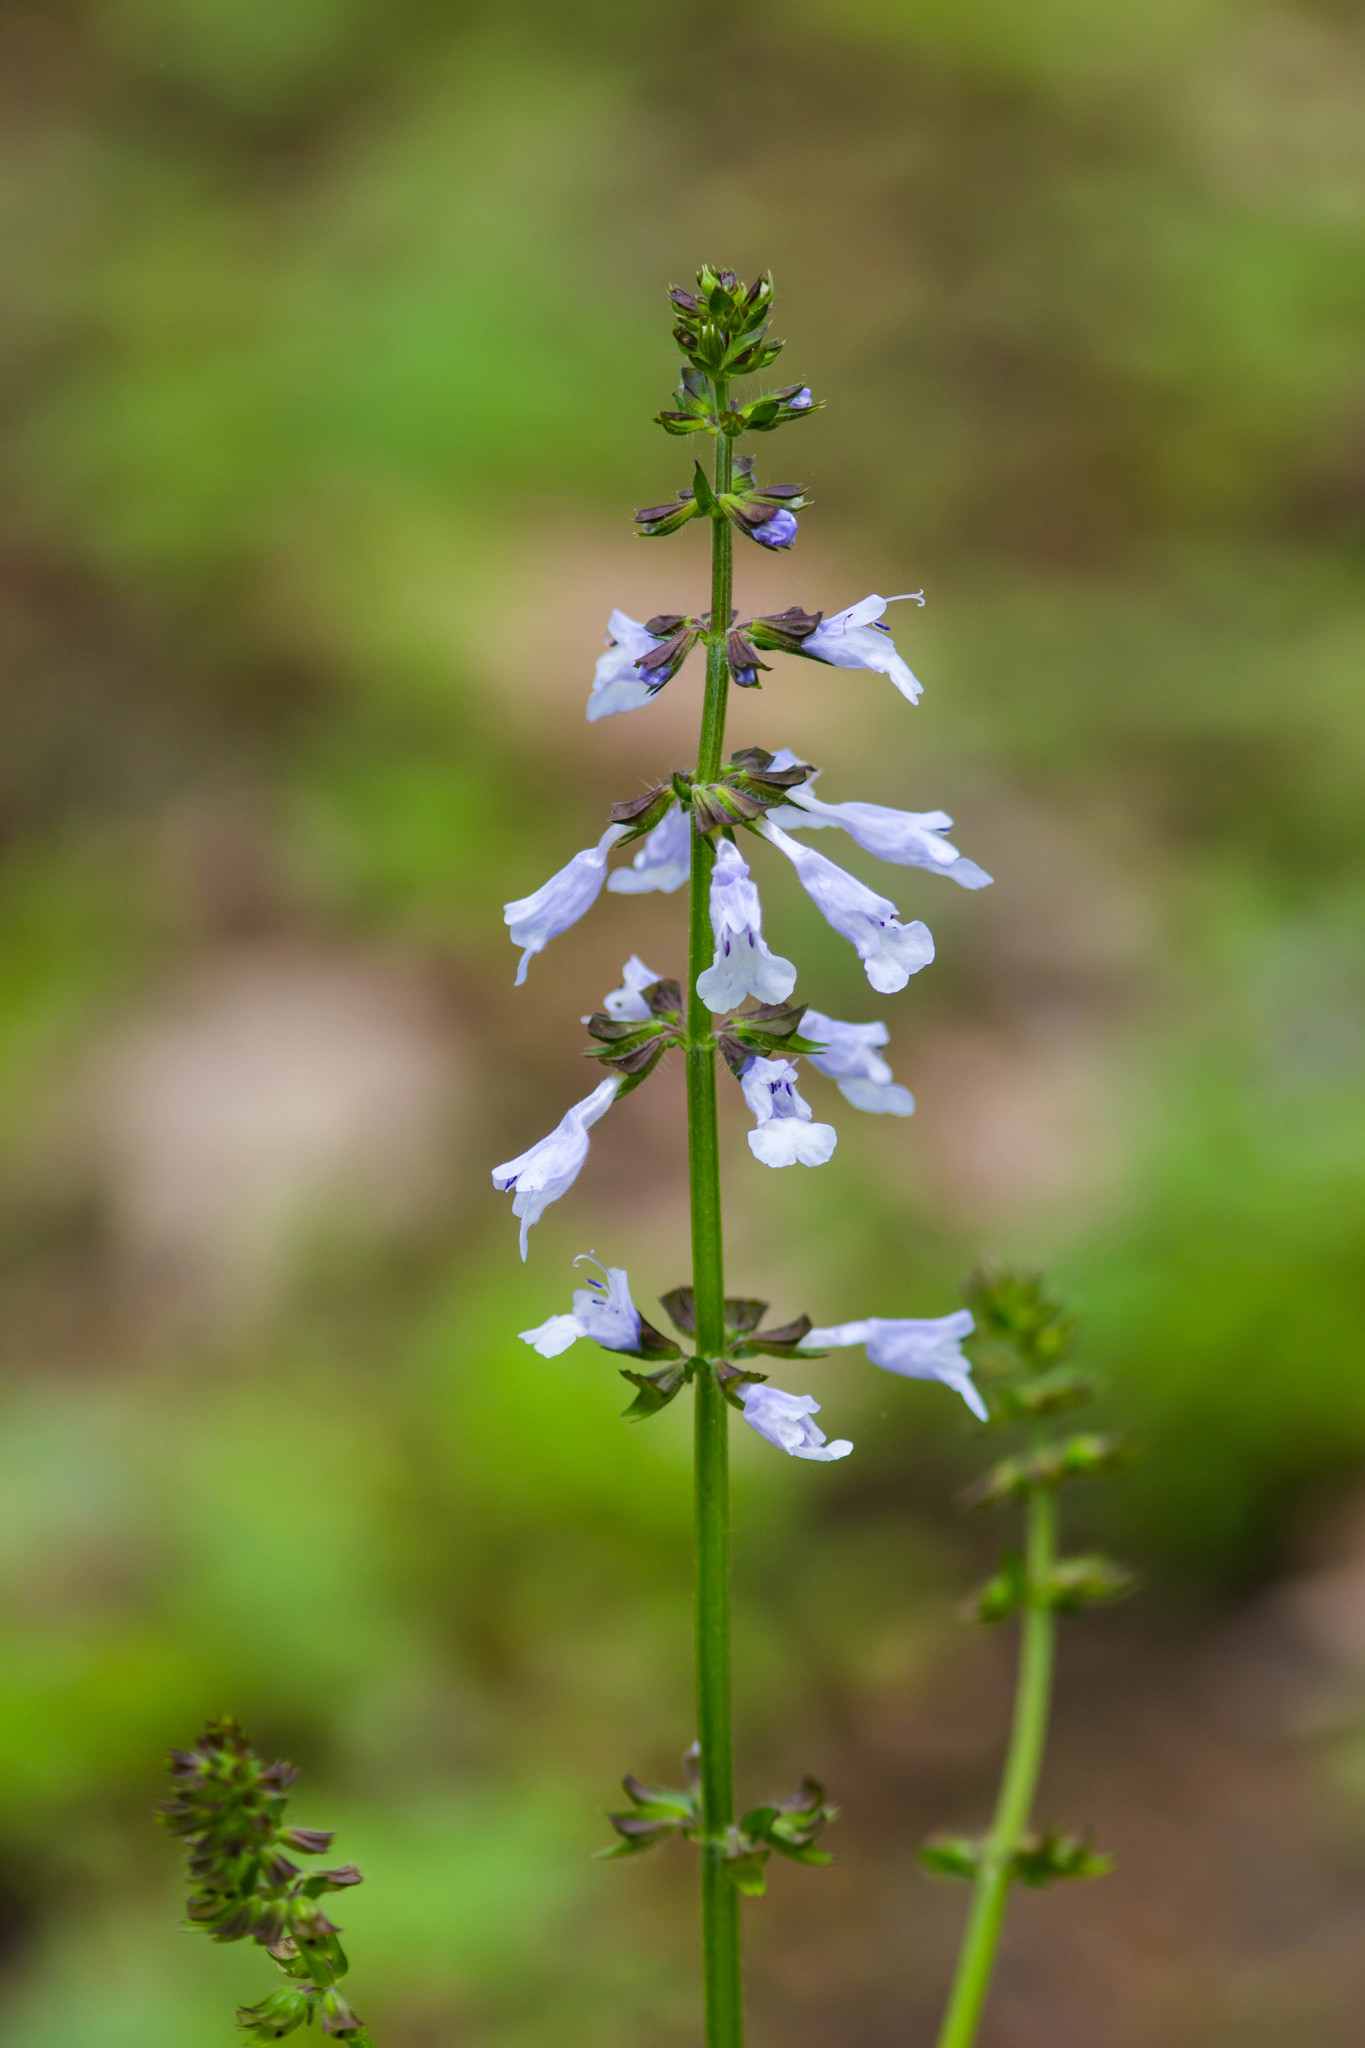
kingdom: Plantae
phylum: Tracheophyta
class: Magnoliopsida
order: Lamiales
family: Lamiaceae
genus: Salvia
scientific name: Salvia lyrata
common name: Cancerweed
